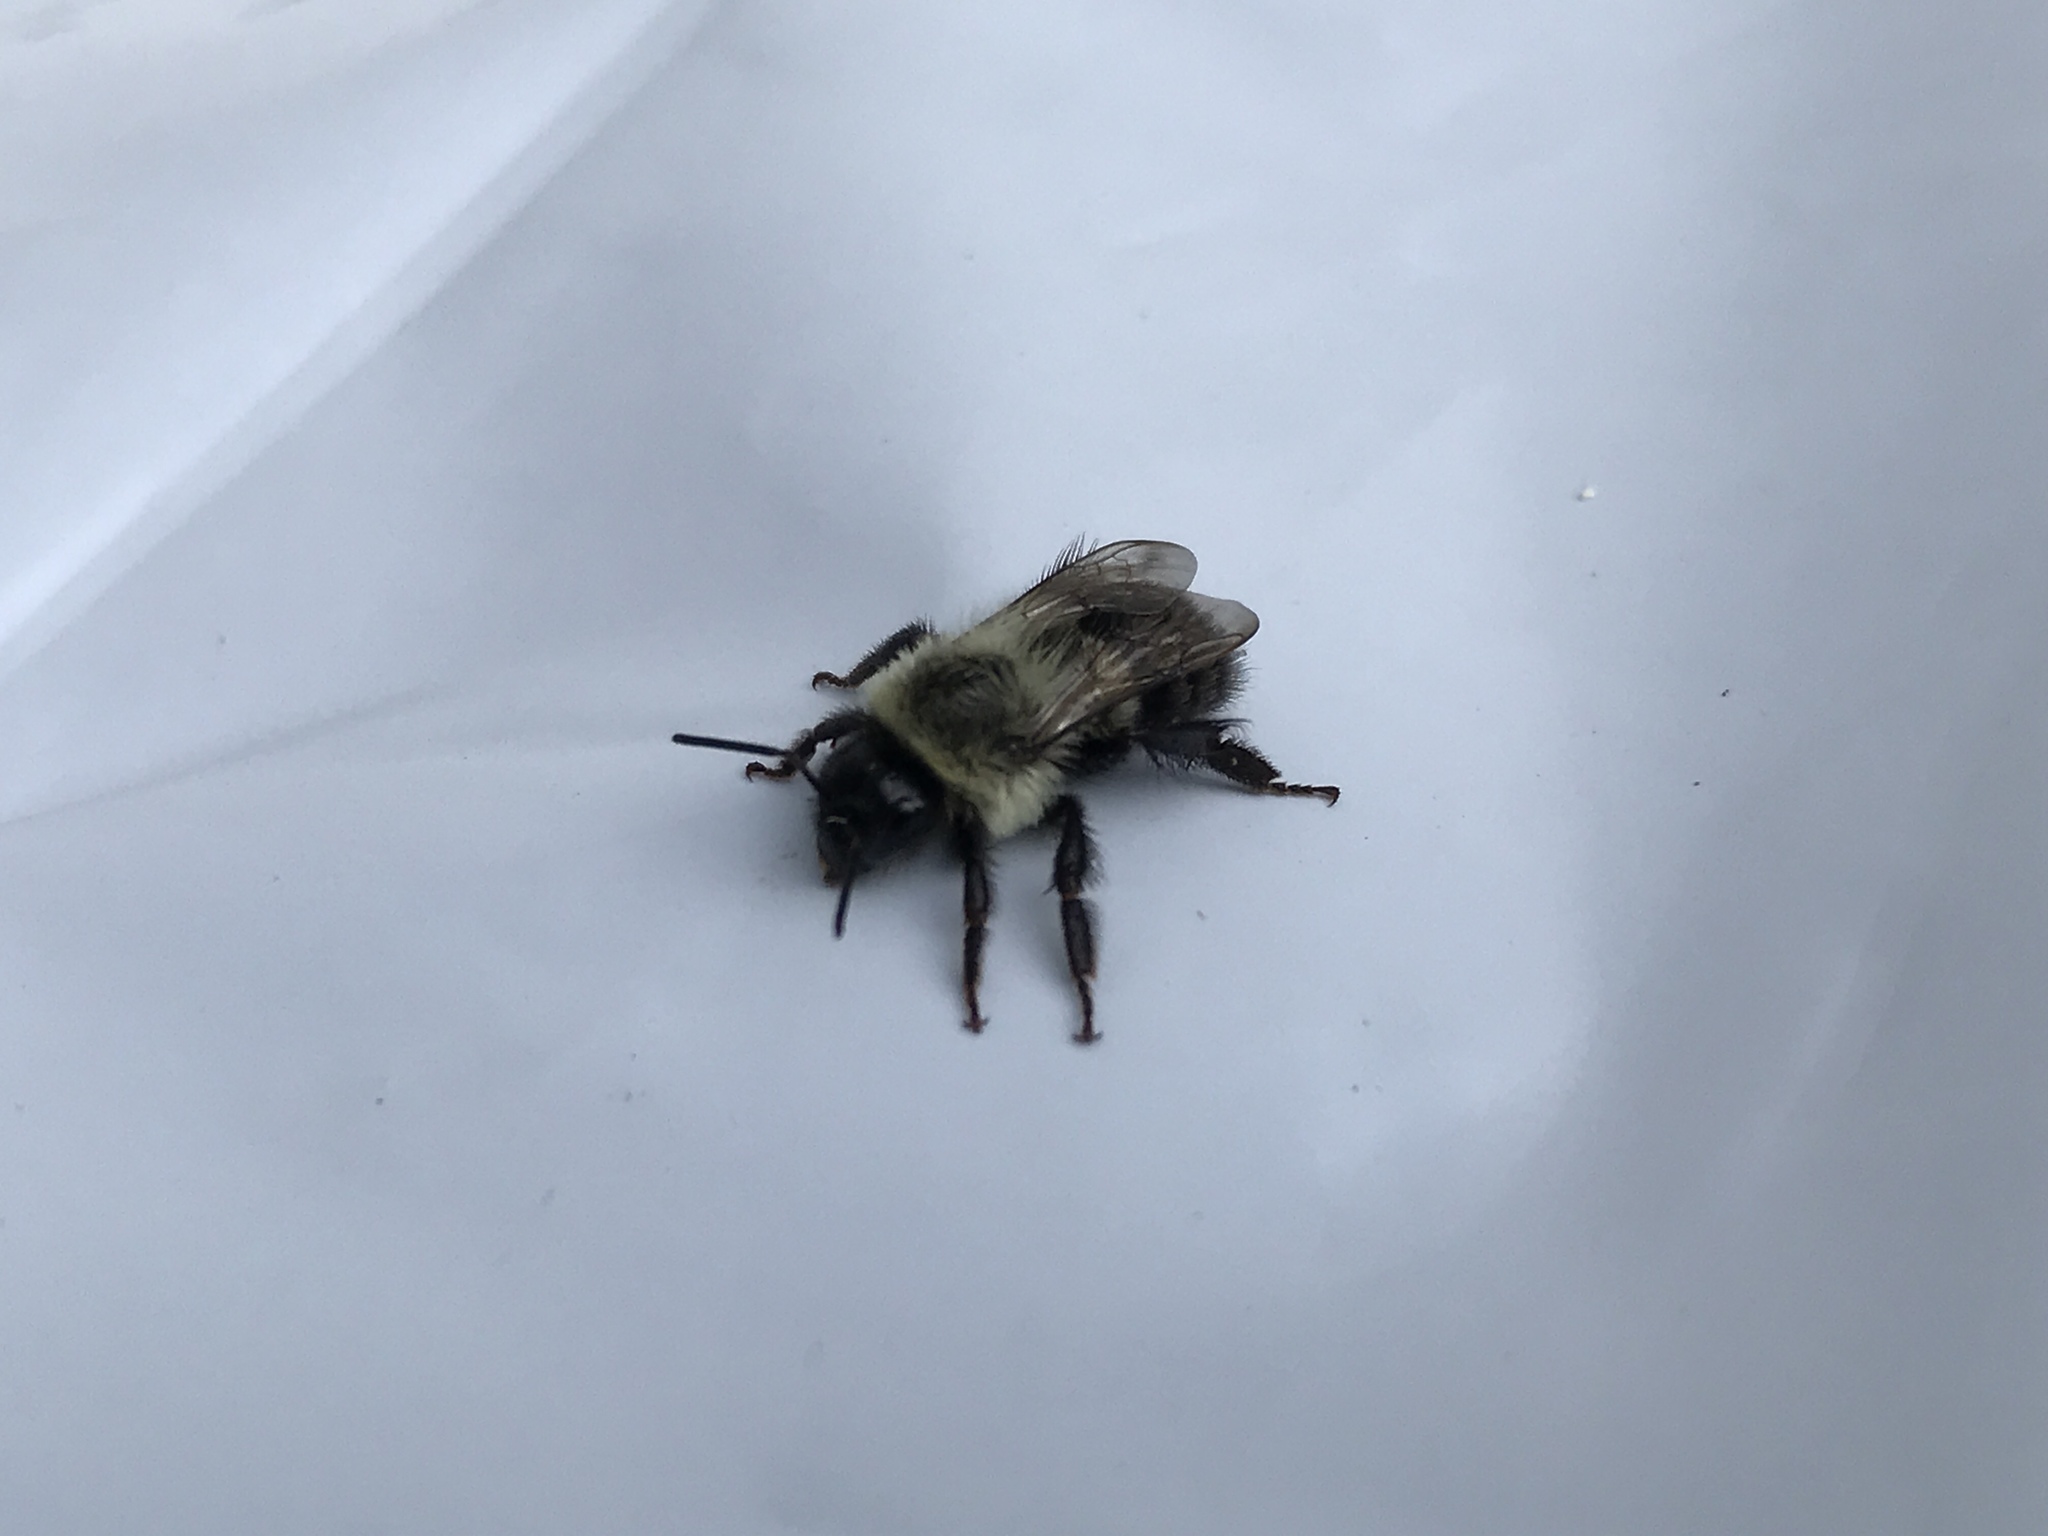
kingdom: Animalia
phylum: Arthropoda
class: Insecta
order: Hymenoptera
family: Apidae
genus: Bombus
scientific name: Bombus impatiens
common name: Common eastern bumble bee
